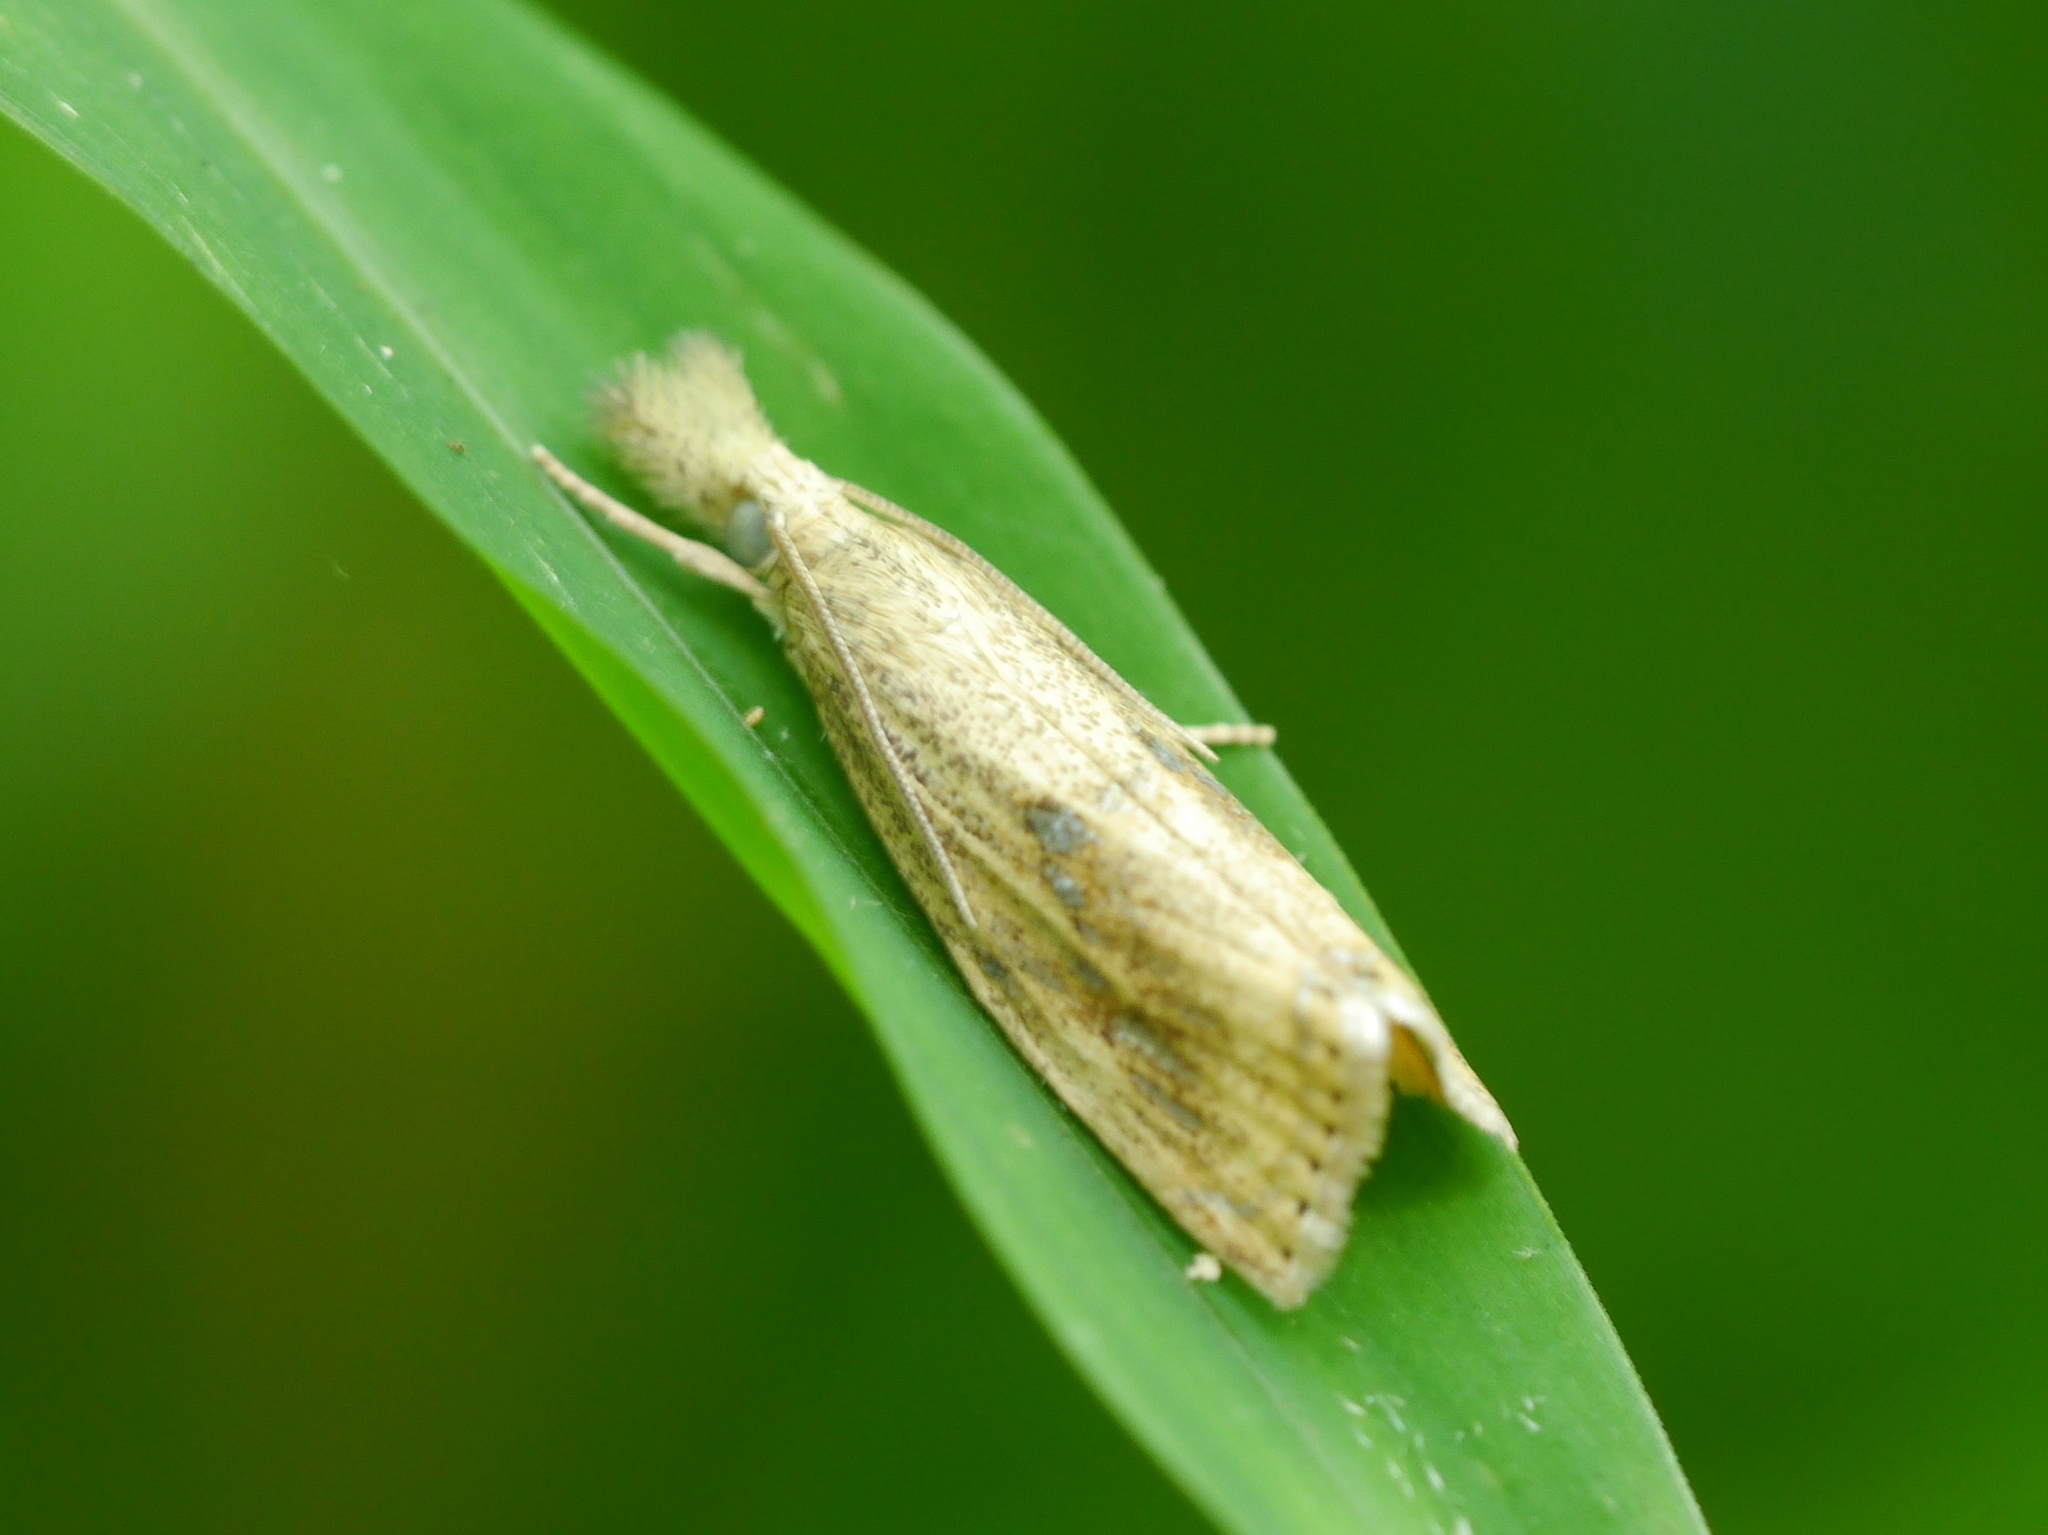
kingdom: Animalia
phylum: Arthropoda
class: Insecta
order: Lepidoptera
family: Crambidae
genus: Chilo
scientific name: Chilo plejadellus
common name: Rice stalk borer moth
